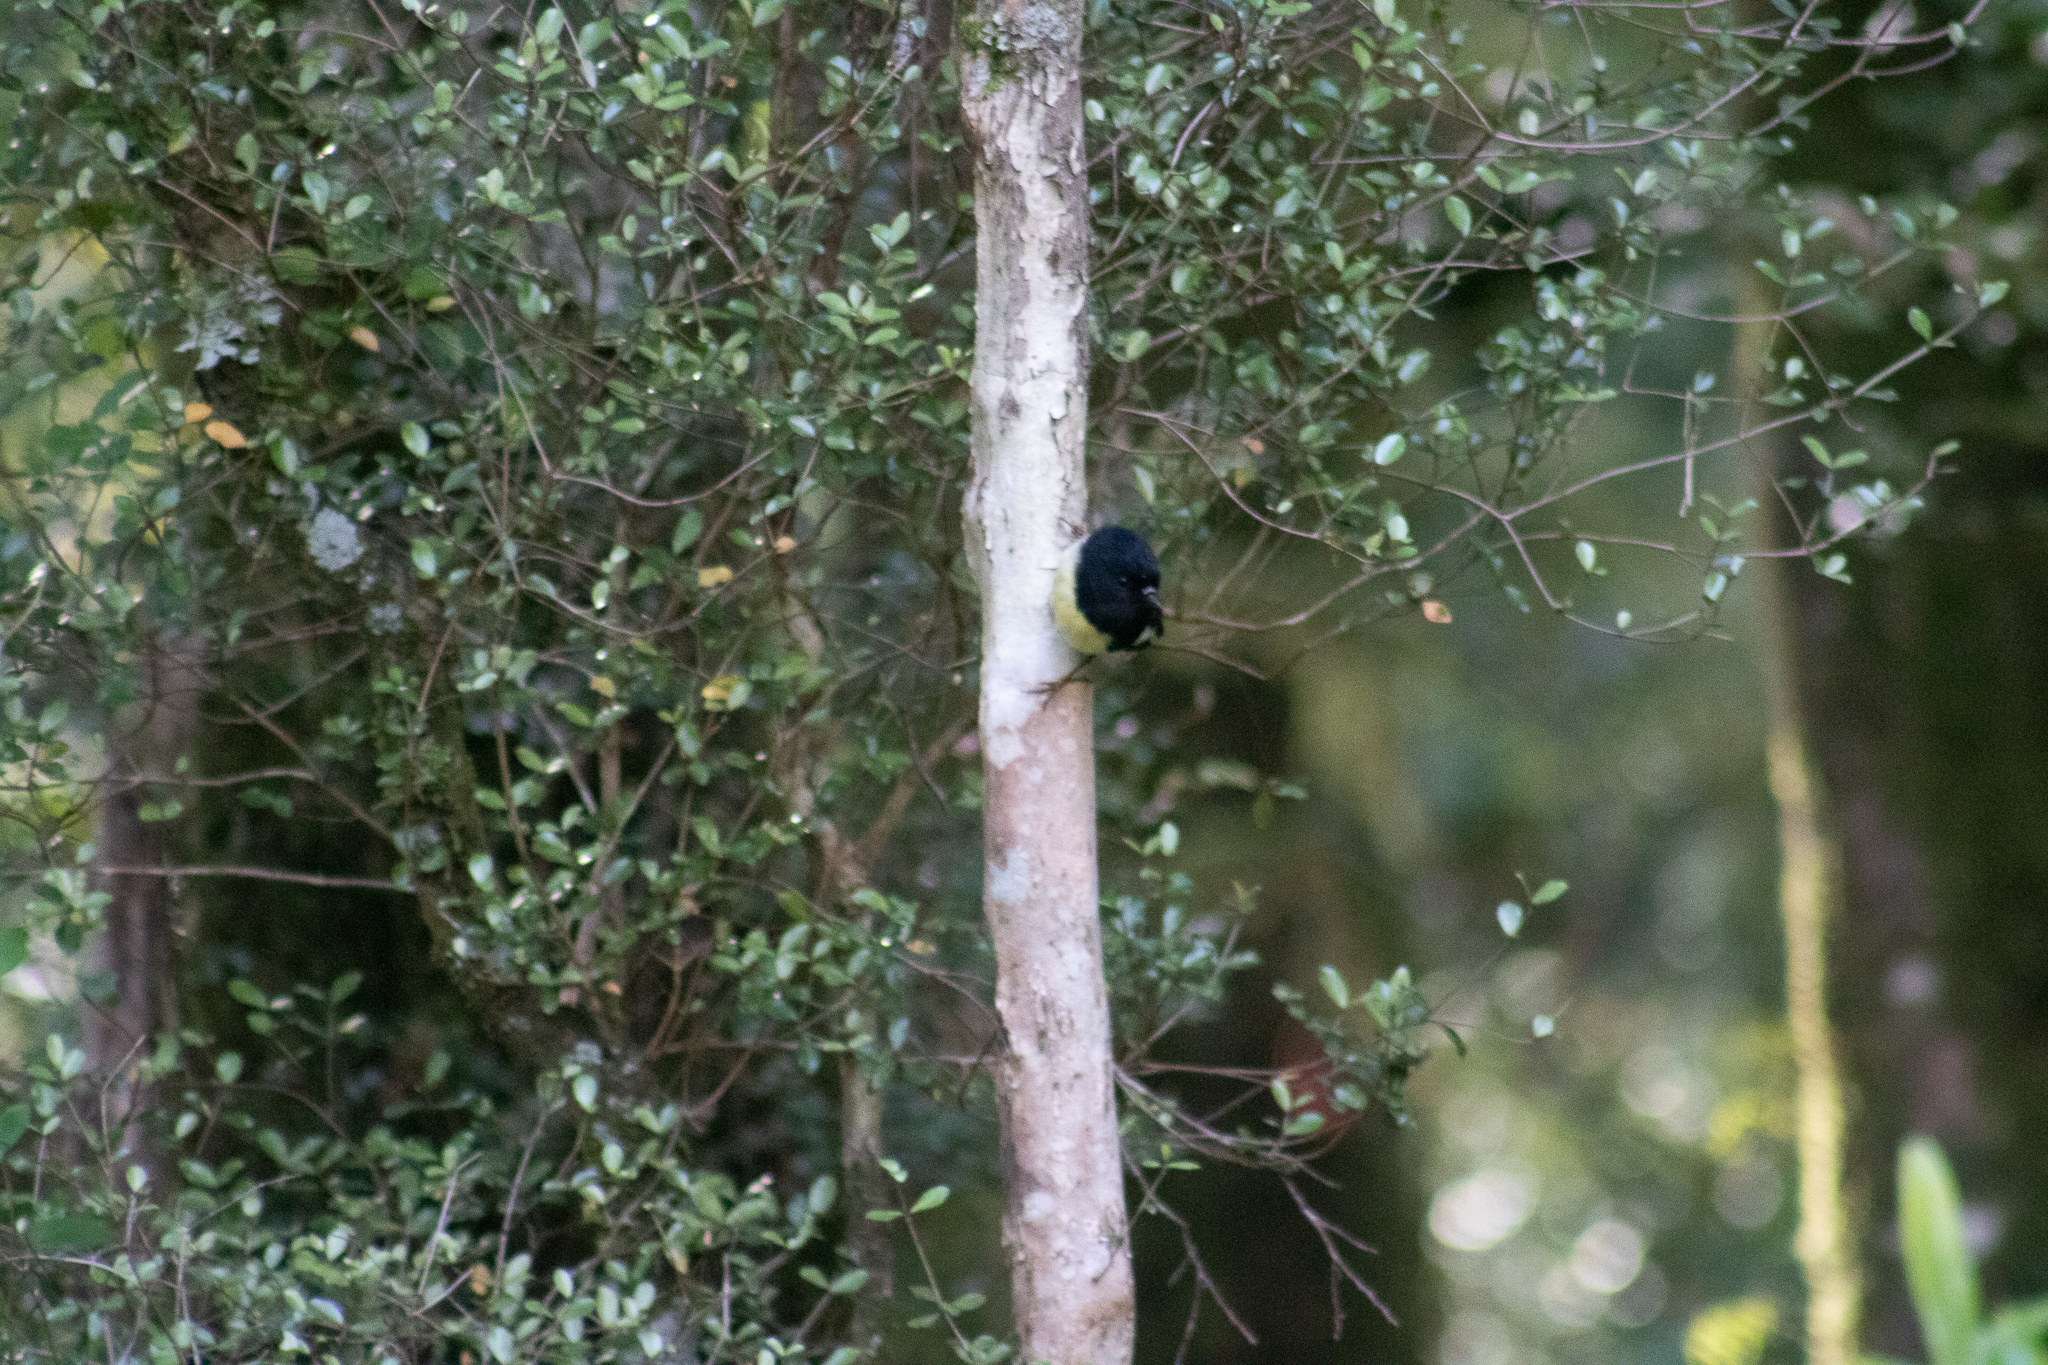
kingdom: Animalia
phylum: Chordata
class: Aves
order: Passeriformes
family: Petroicidae
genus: Petroica
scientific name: Petroica macrocephala
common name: Tomtit
